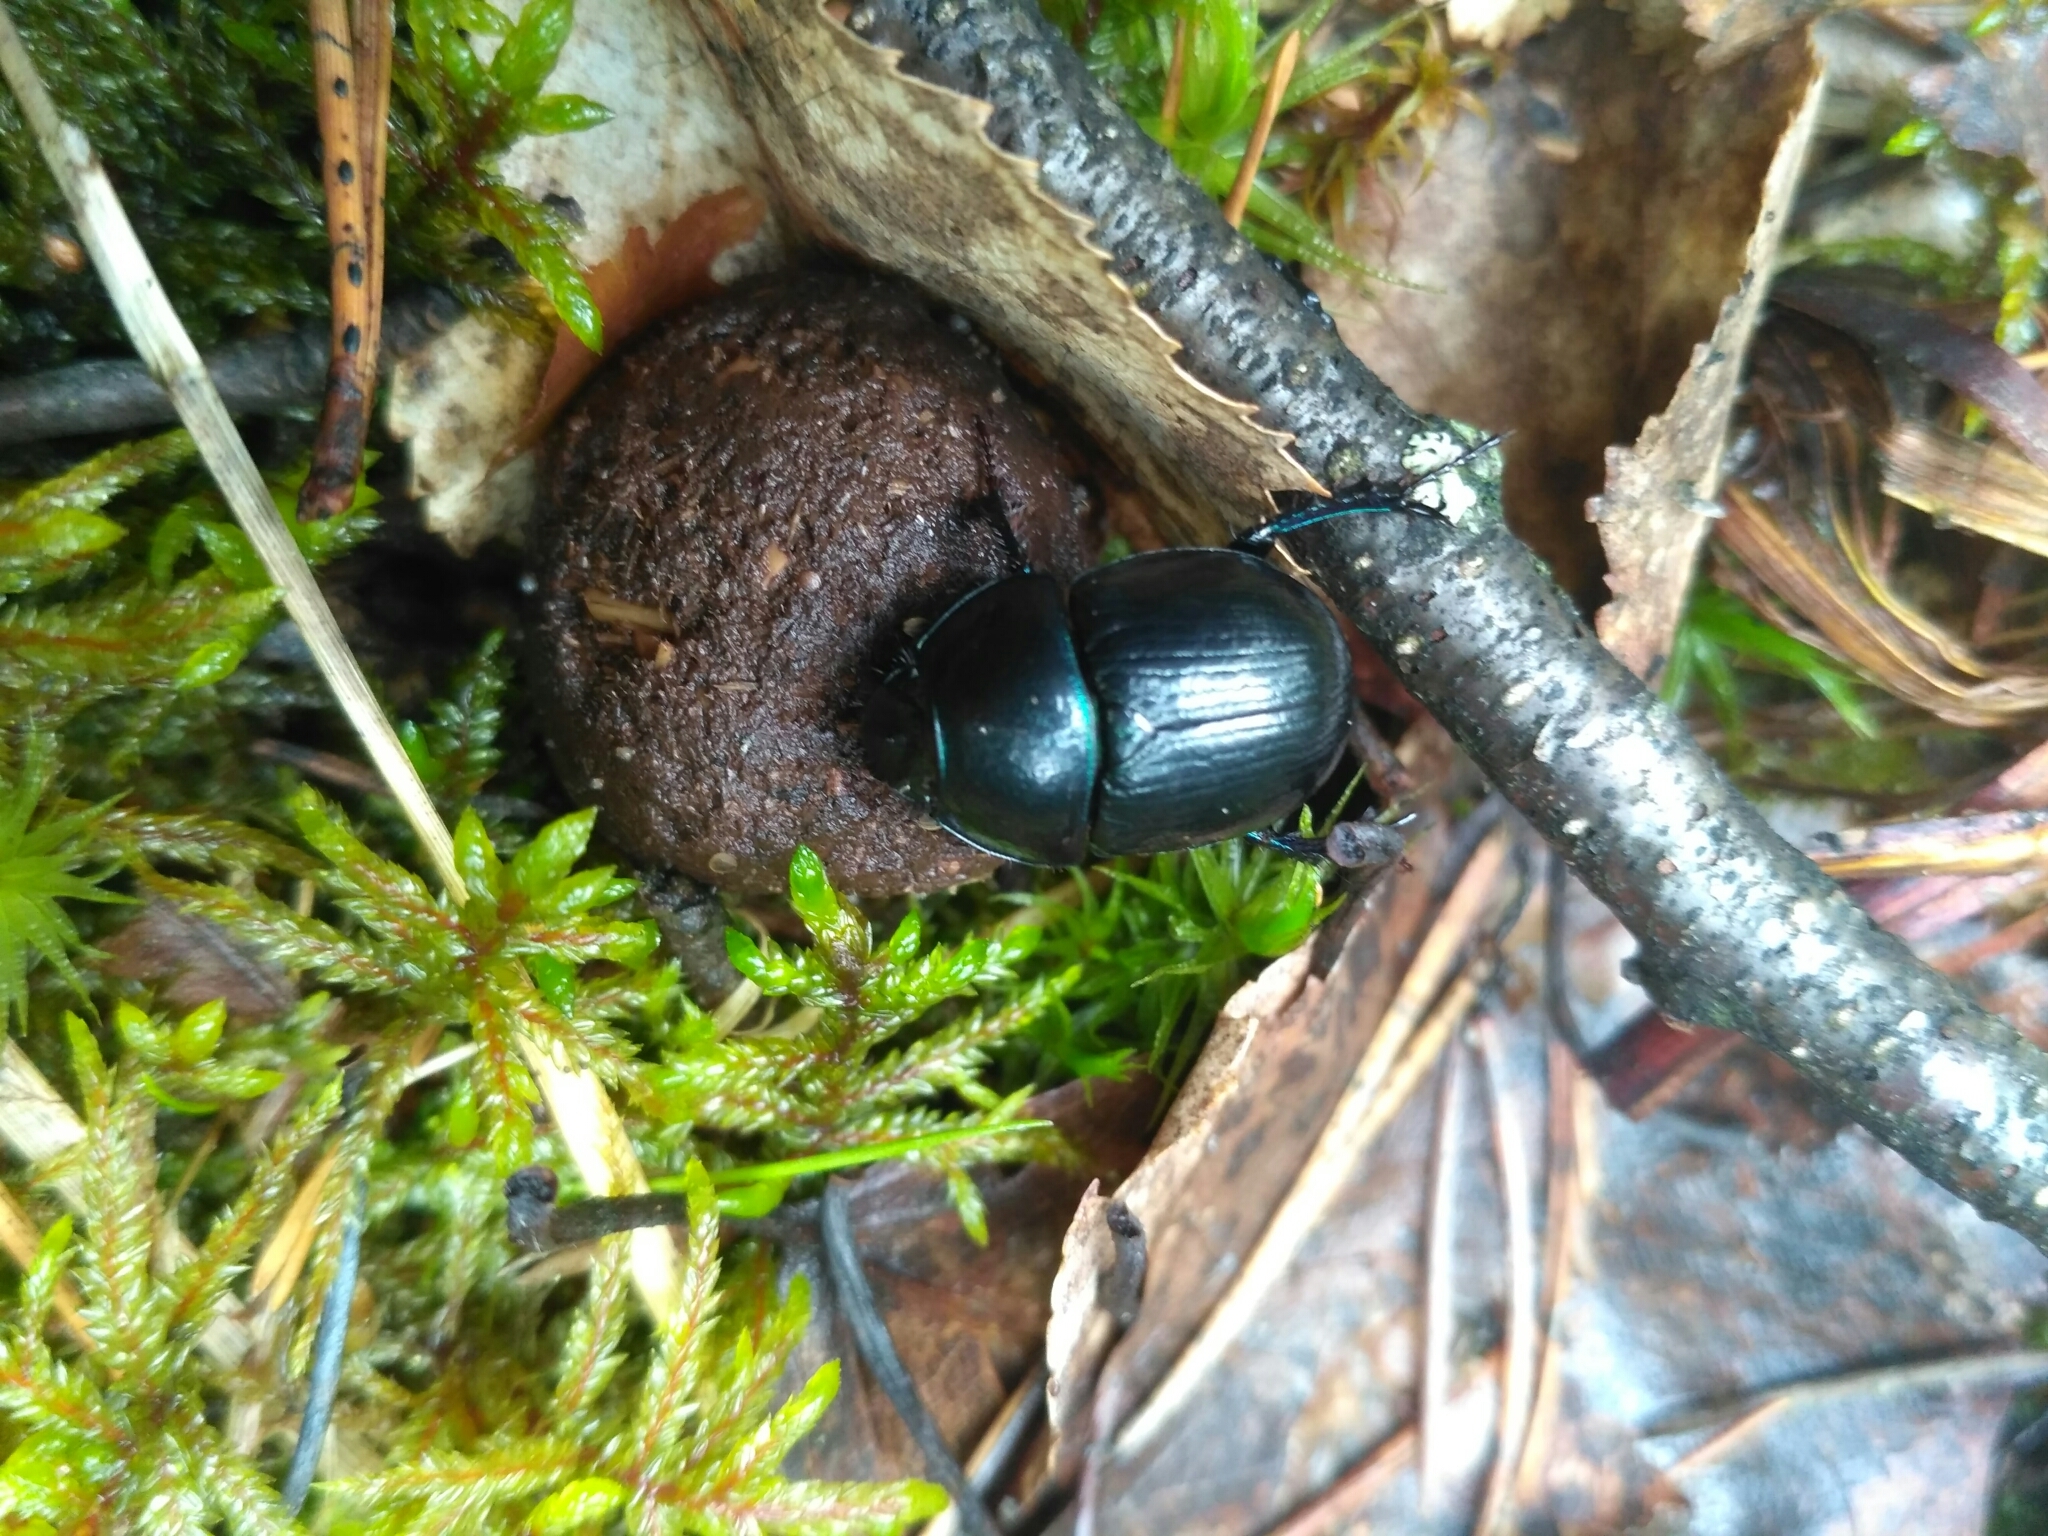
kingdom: Animalia
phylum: Arthropoda
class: Insecta
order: Coleoptera
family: Geotrupidae
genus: Anoplotrupes
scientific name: Anoplotrupes stercorosus
